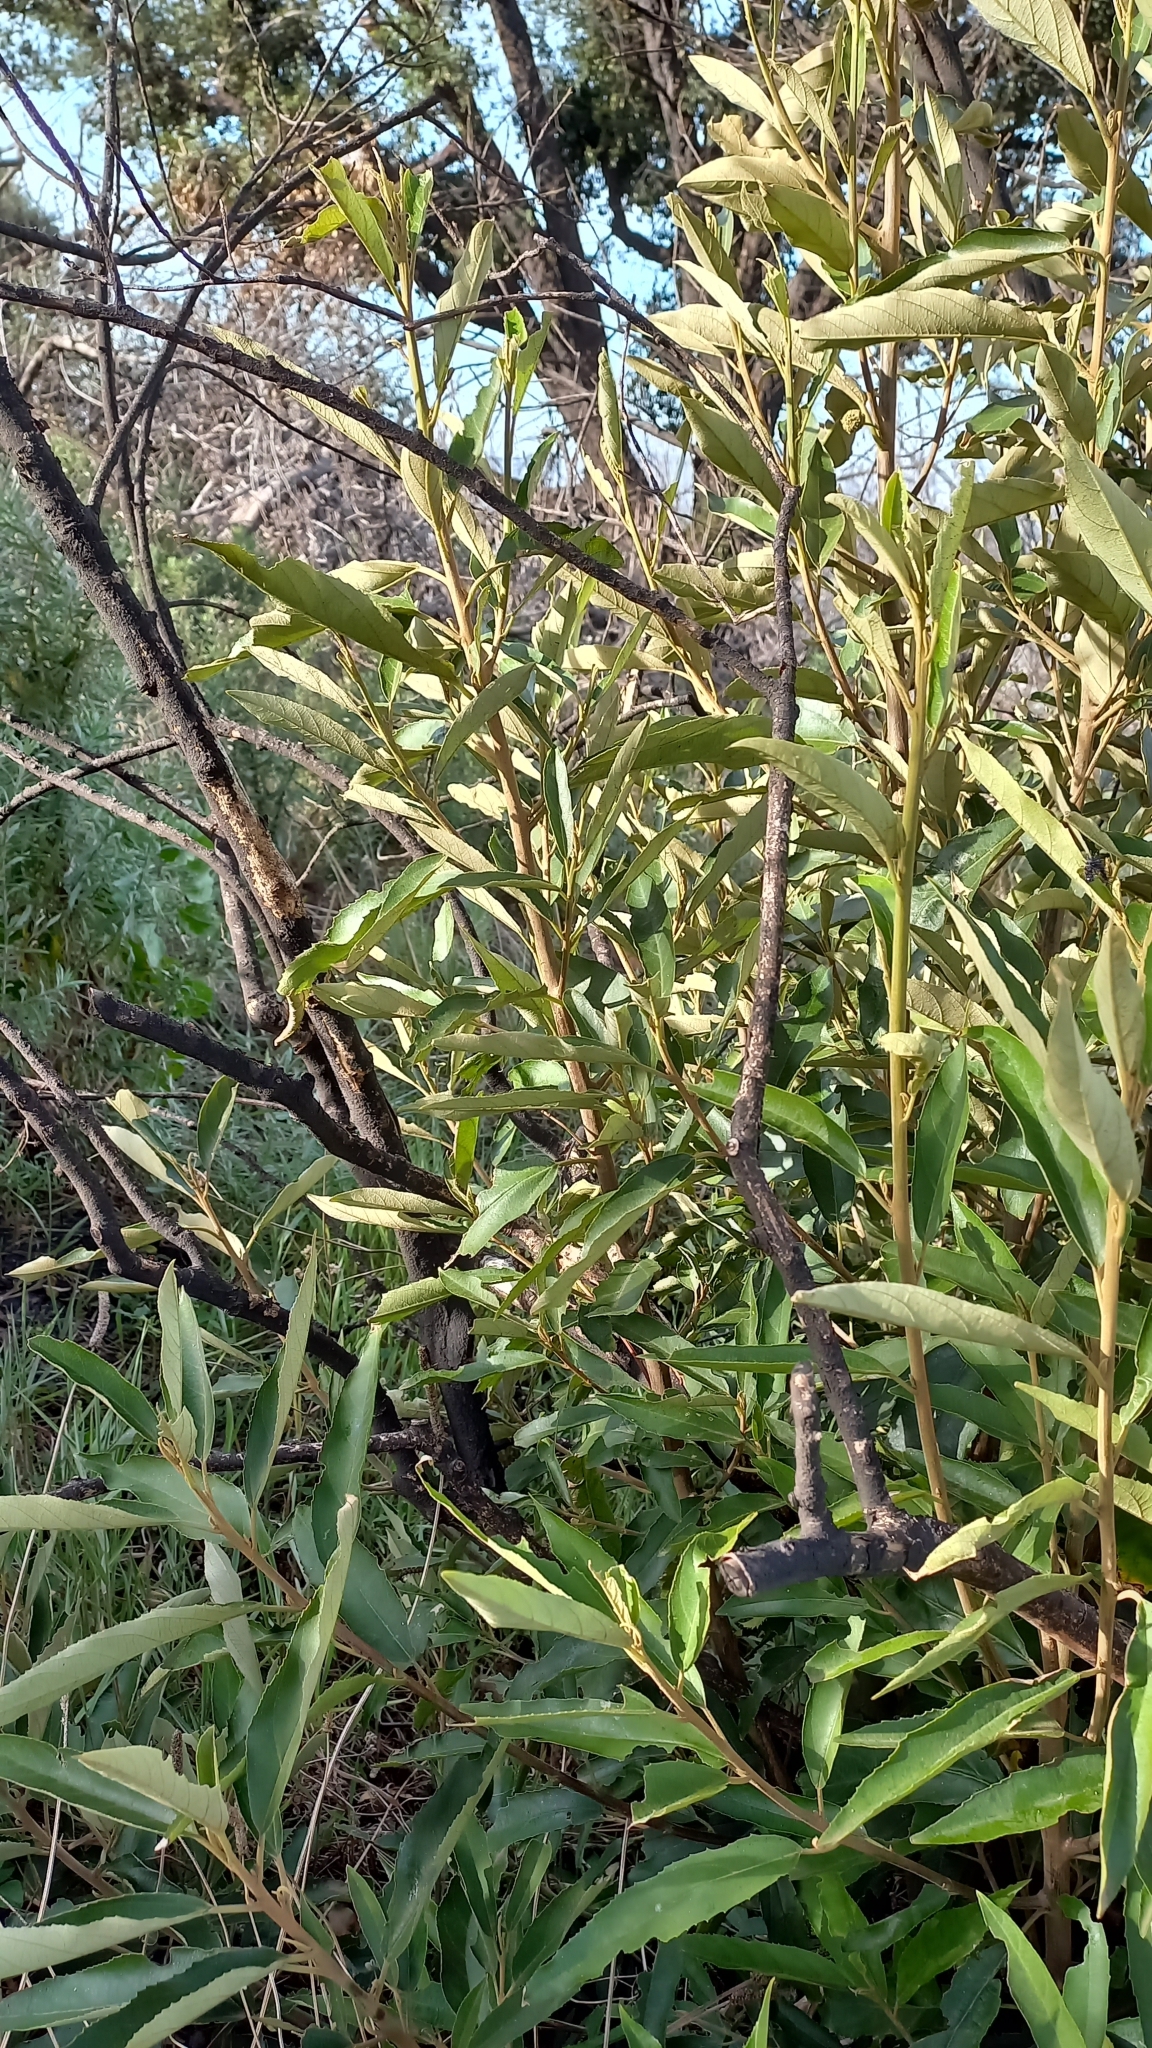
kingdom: Plantae
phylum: Tracheophyta
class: Magnoliopsida
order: Malpighiales
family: Achariaceae
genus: Kiggelaria
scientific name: Kiggelaria africana
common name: Wild peach
